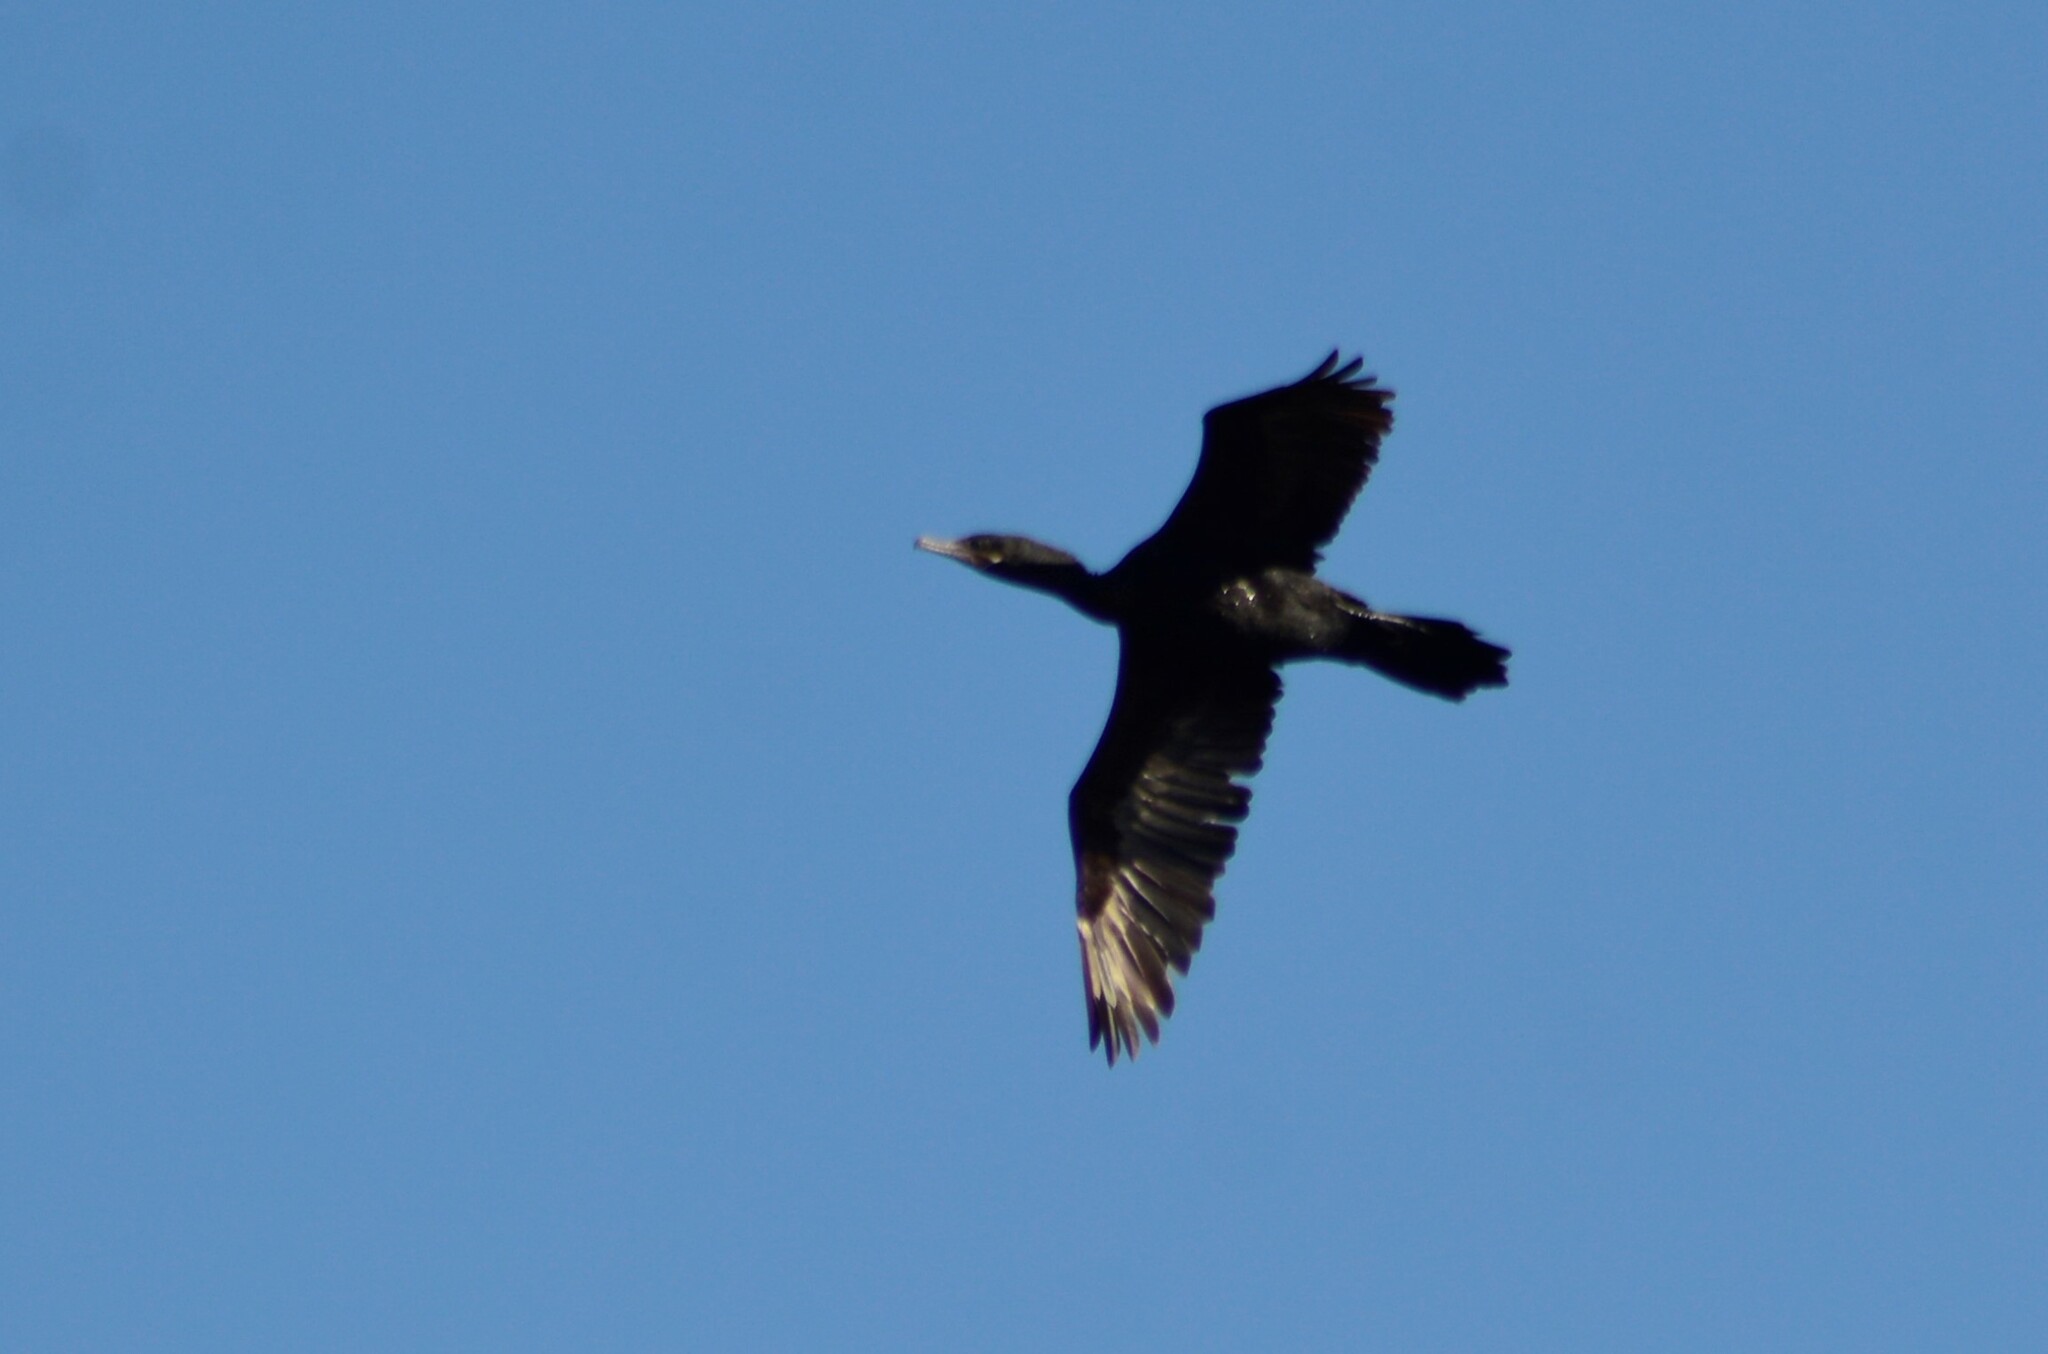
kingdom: Animalia
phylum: Chordata
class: Aves
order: Suliformes
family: Phalacrocoracidae
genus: Phalacrocorax
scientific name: Phalacrocorax brasilianus
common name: Neotropic cormorant
